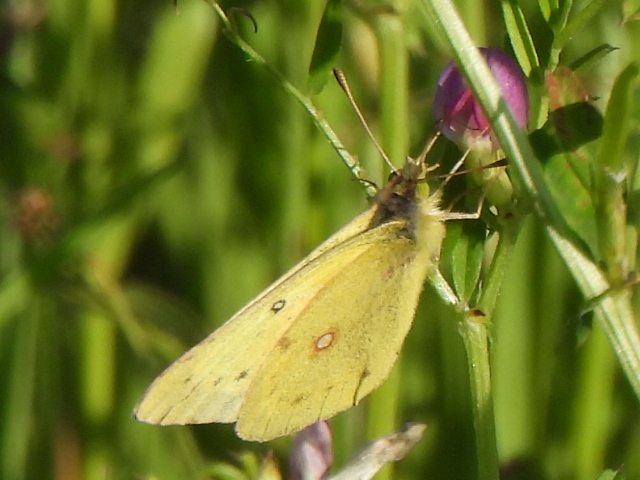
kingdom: Animalia
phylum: Arthropoda
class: Insecta
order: Lepidoptera
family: Pieridae
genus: Colias
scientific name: Colias eurytheme
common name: Alfalfa butterfly
